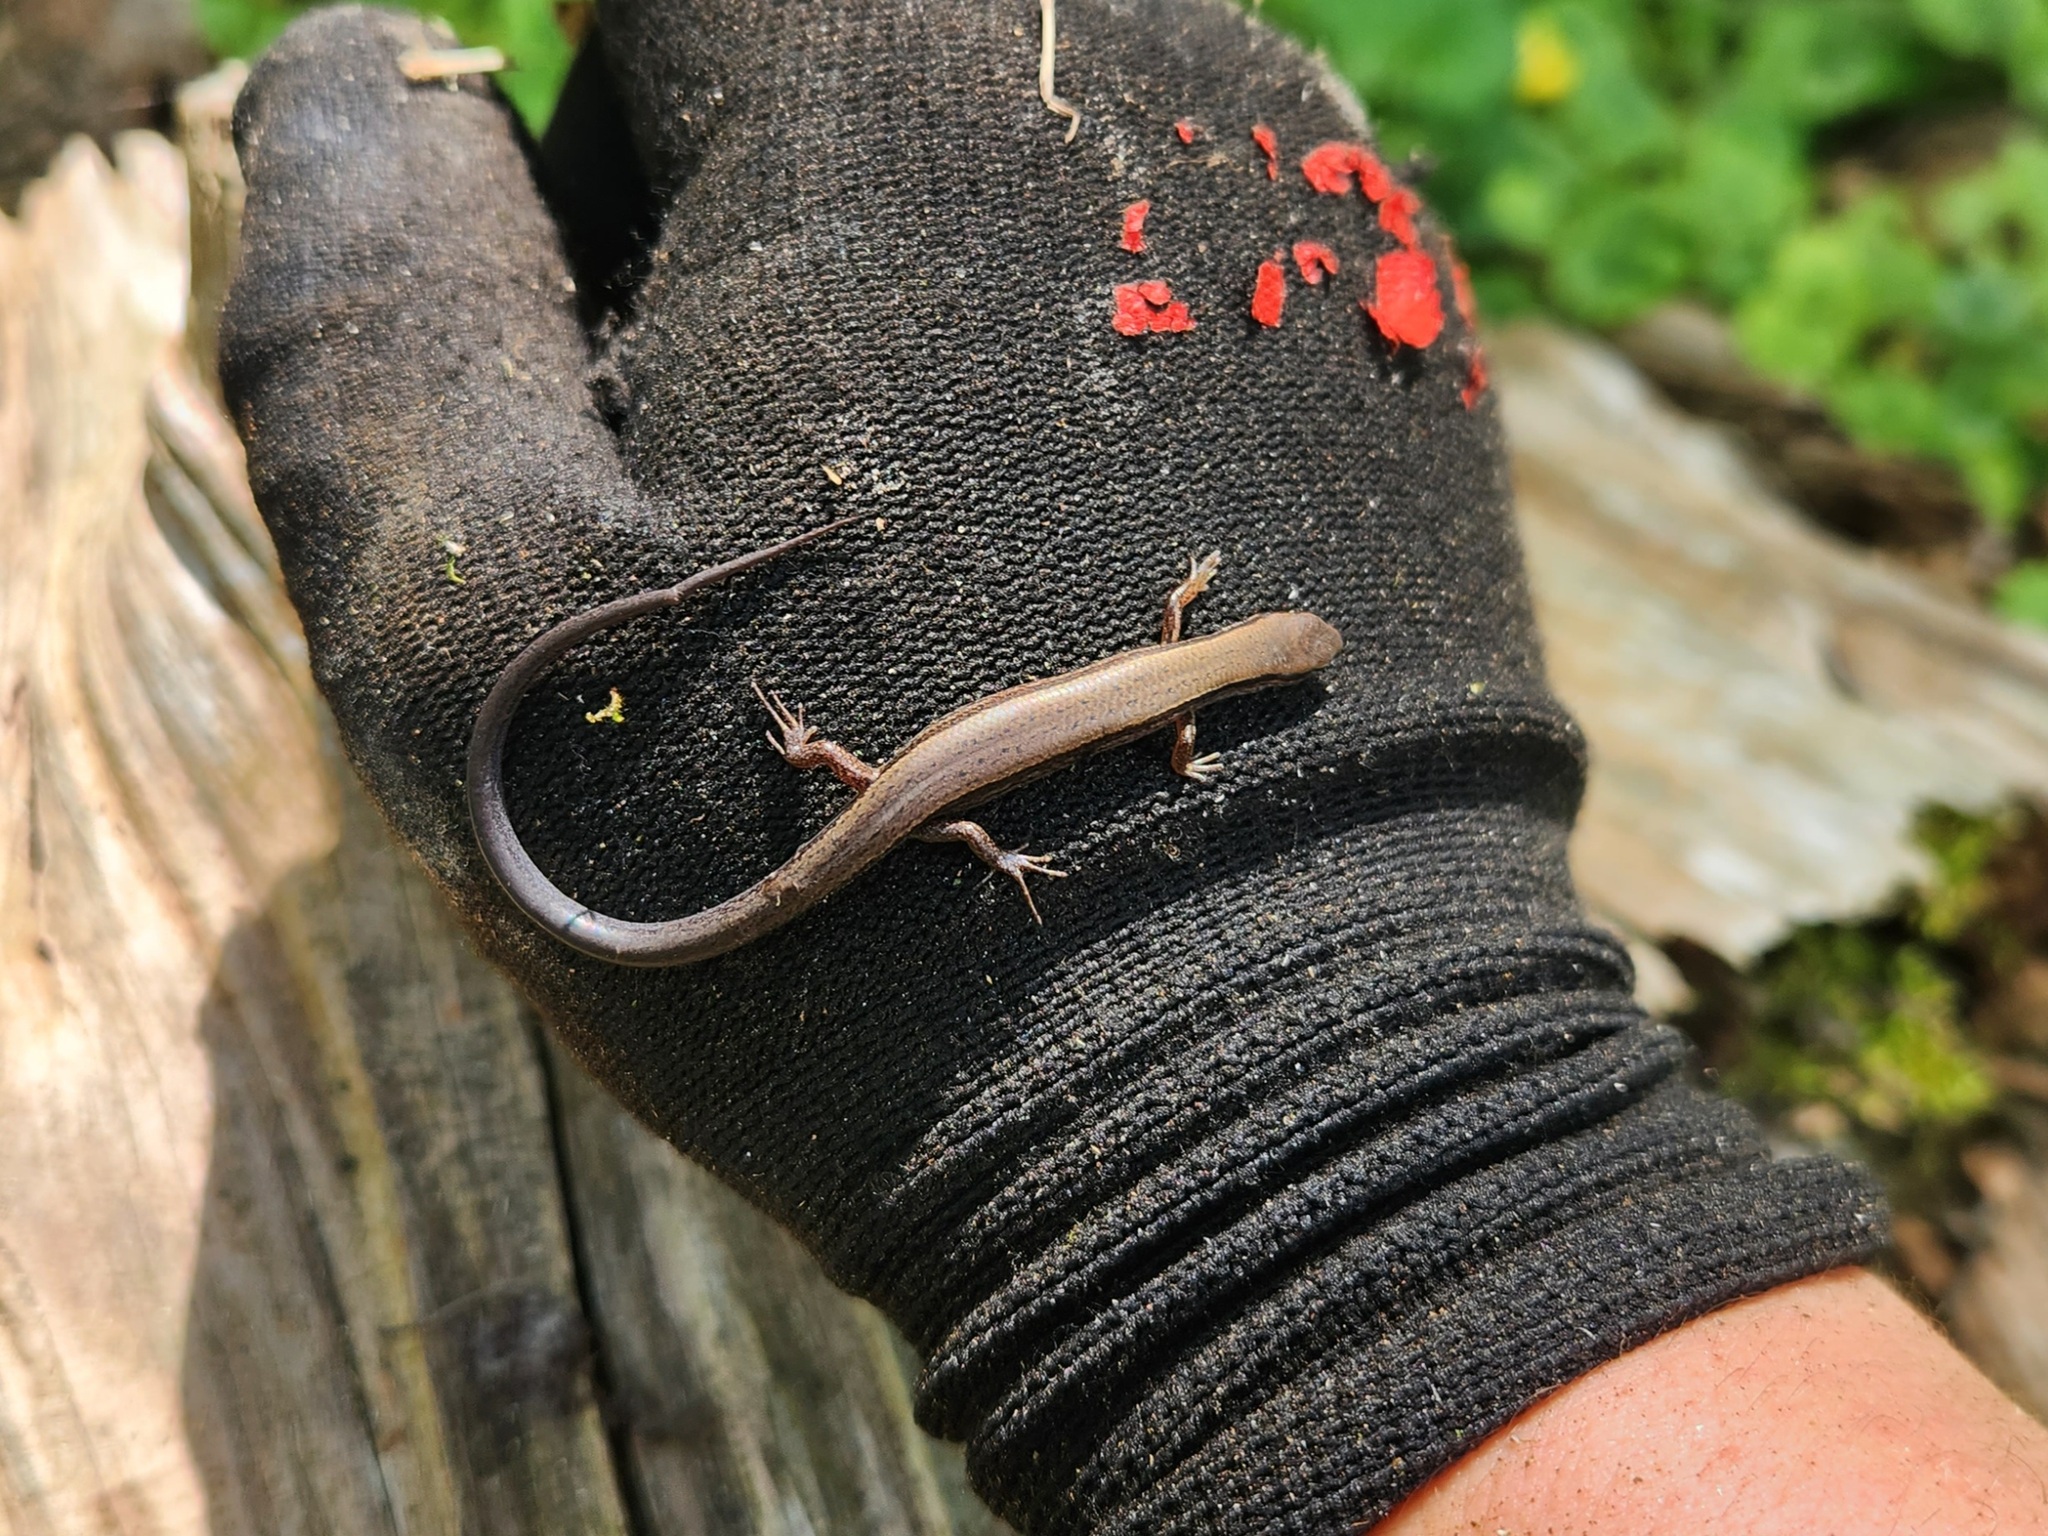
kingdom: Animalia
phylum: Chordata
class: Squamata
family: Scincidae
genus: Scincella
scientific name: Scincella lateralis
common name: Ground skink
